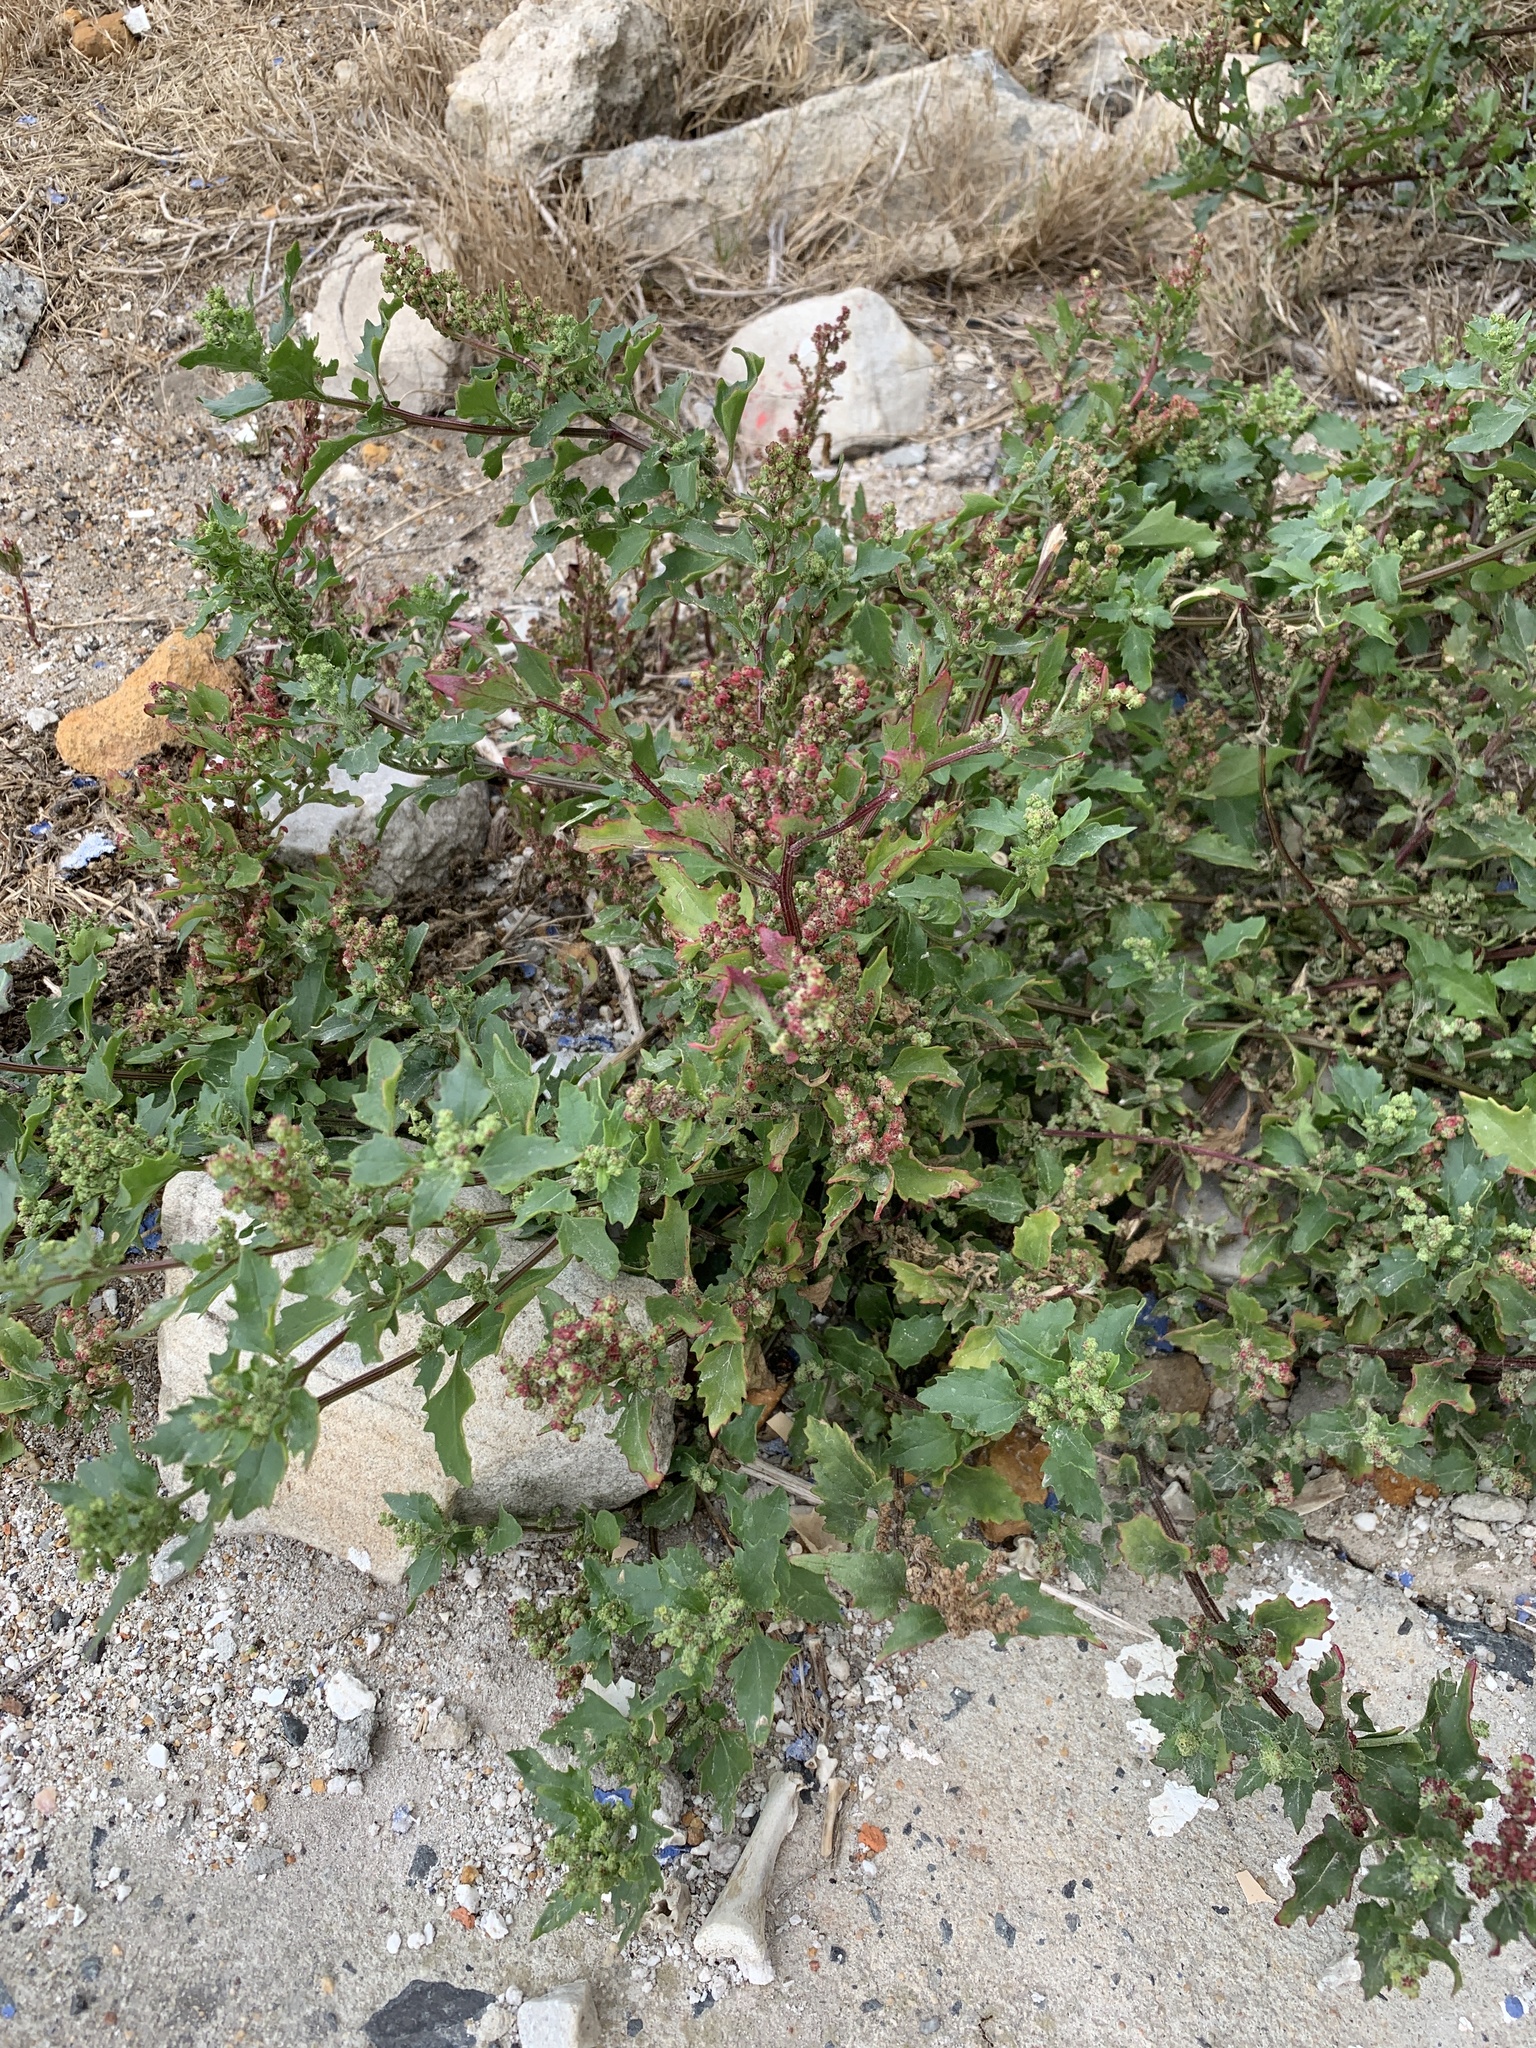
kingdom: Plantae
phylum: Tracheophyta
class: Magnoliopsida
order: Caryophyllales
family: Amaranthaceae
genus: Chenopodiastrum
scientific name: Chenopodiastrum murale
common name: Sowbane
